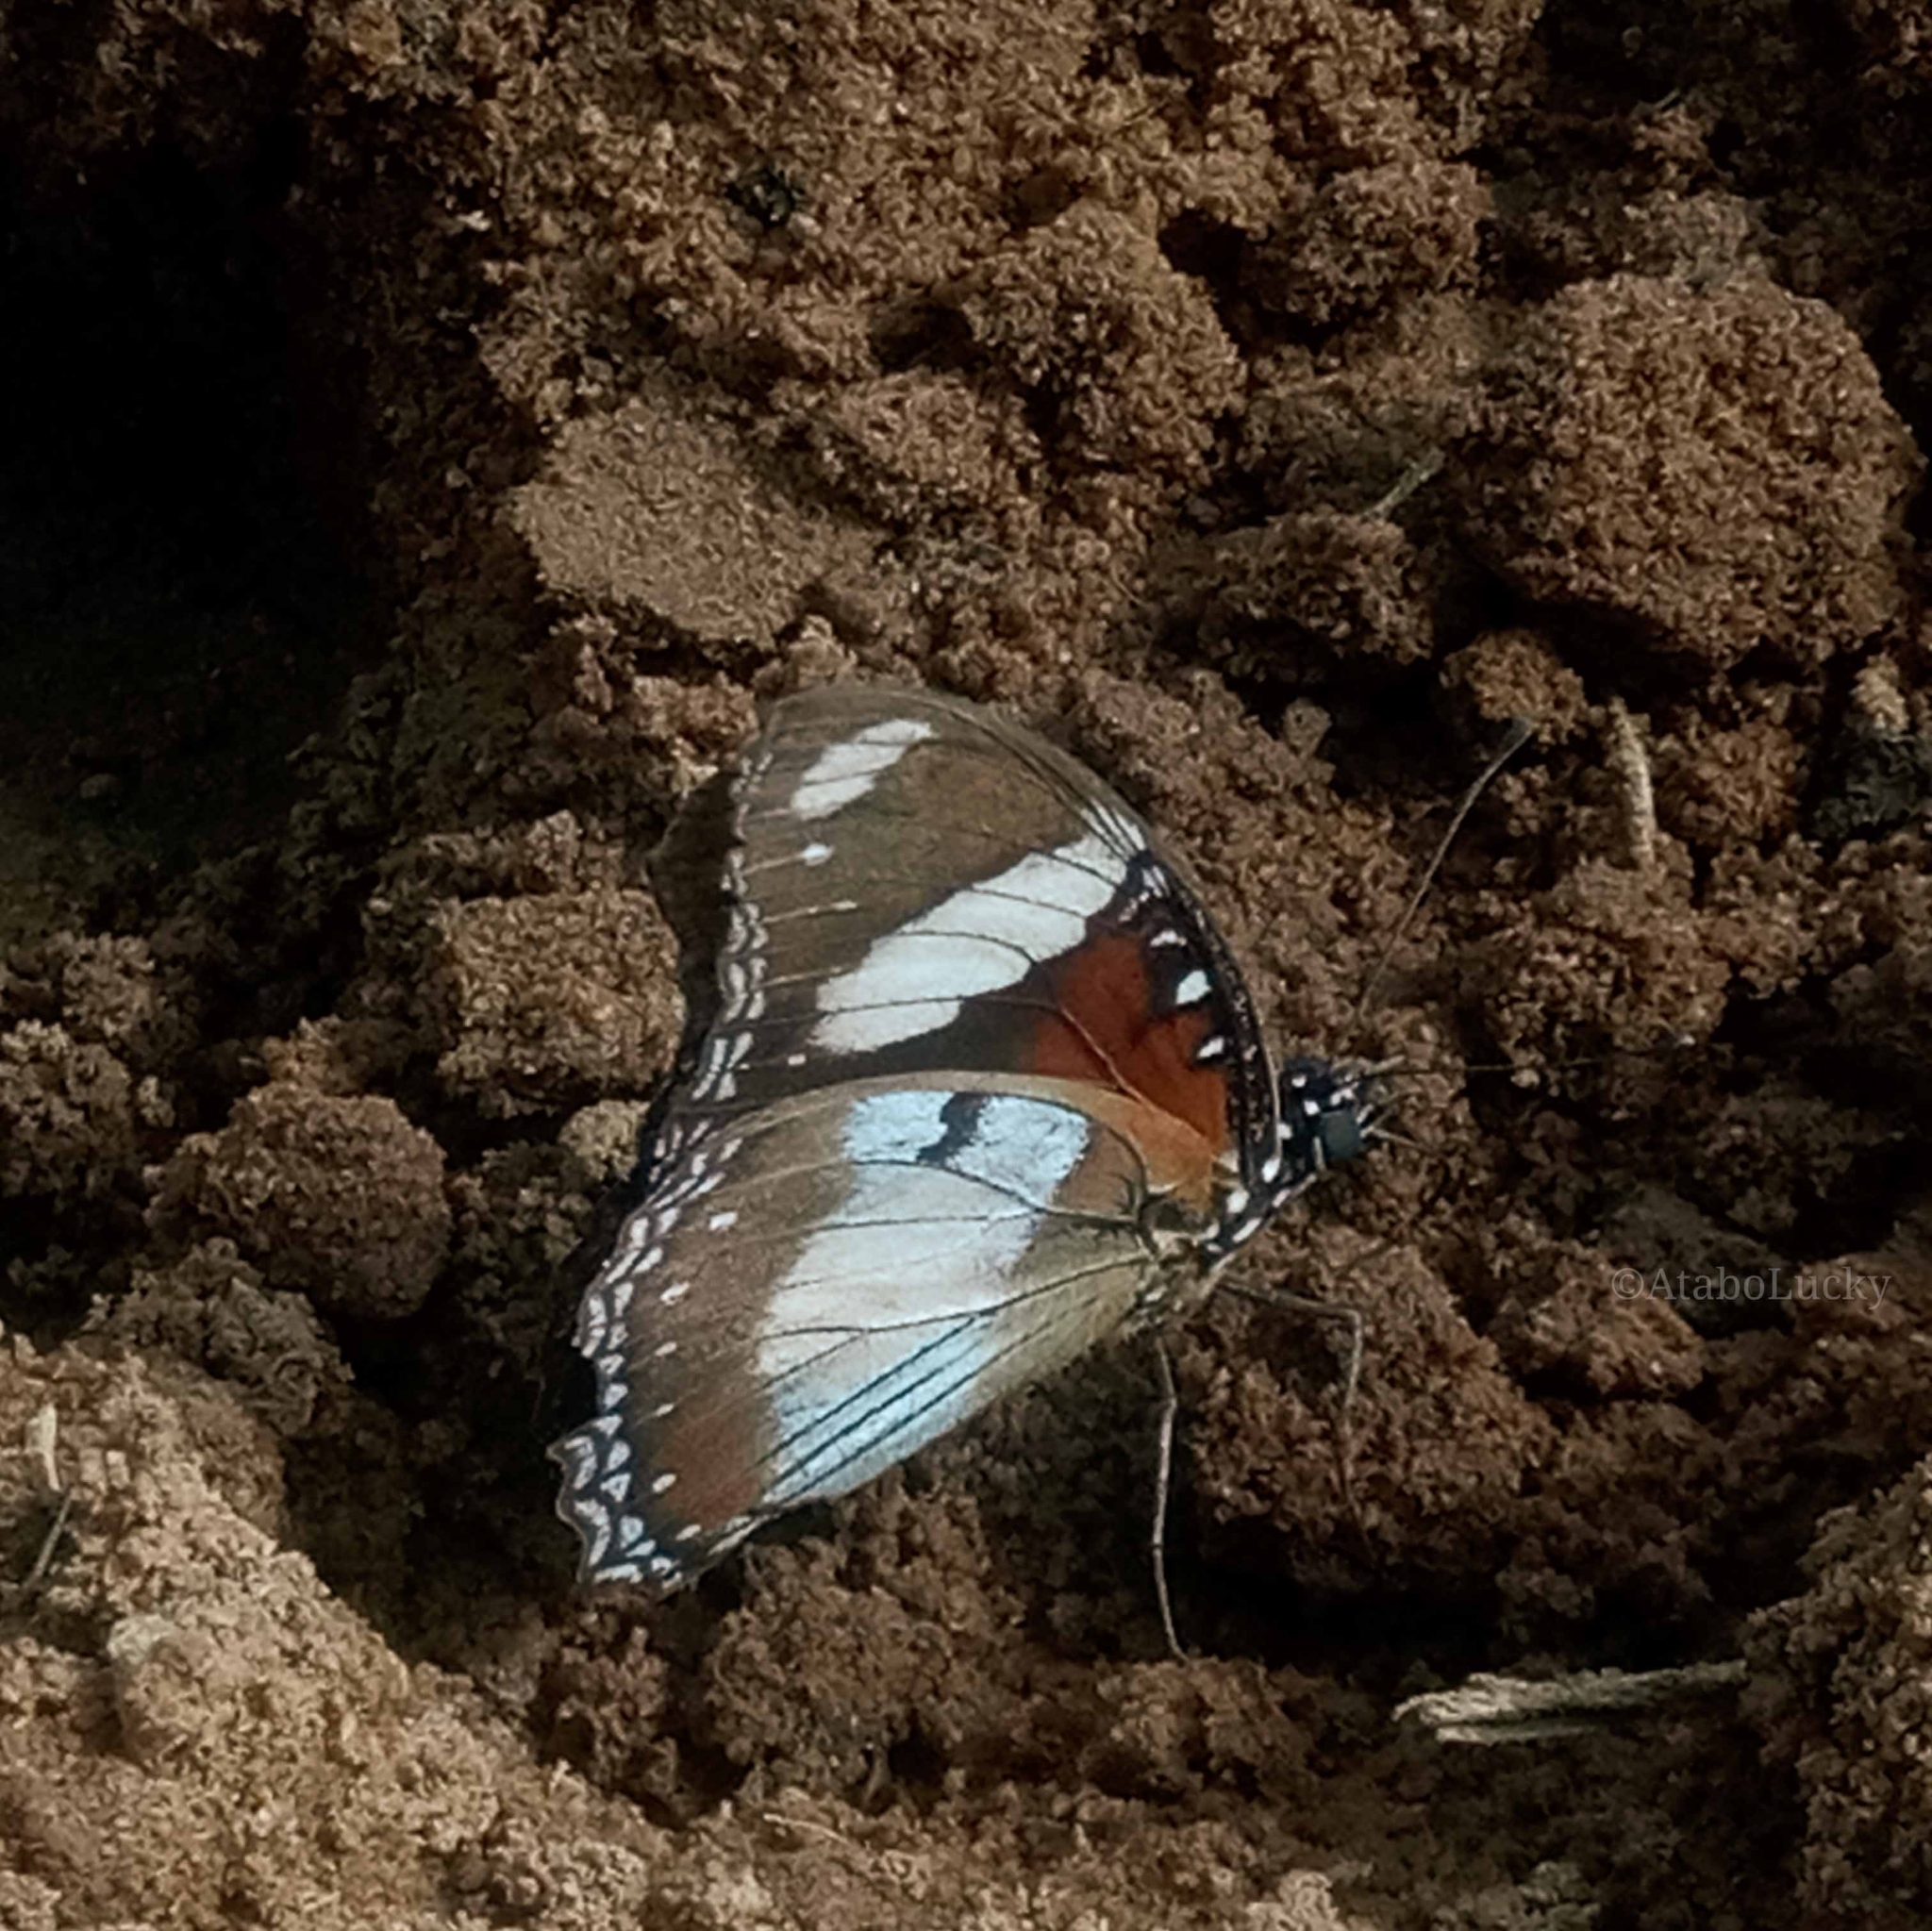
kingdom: Animalia
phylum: Arthropoda
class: Insecta
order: Lepidoptera
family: Nymphalidae
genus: Hypolimnas
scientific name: Hypolimnas misippus
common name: False plain tiger
